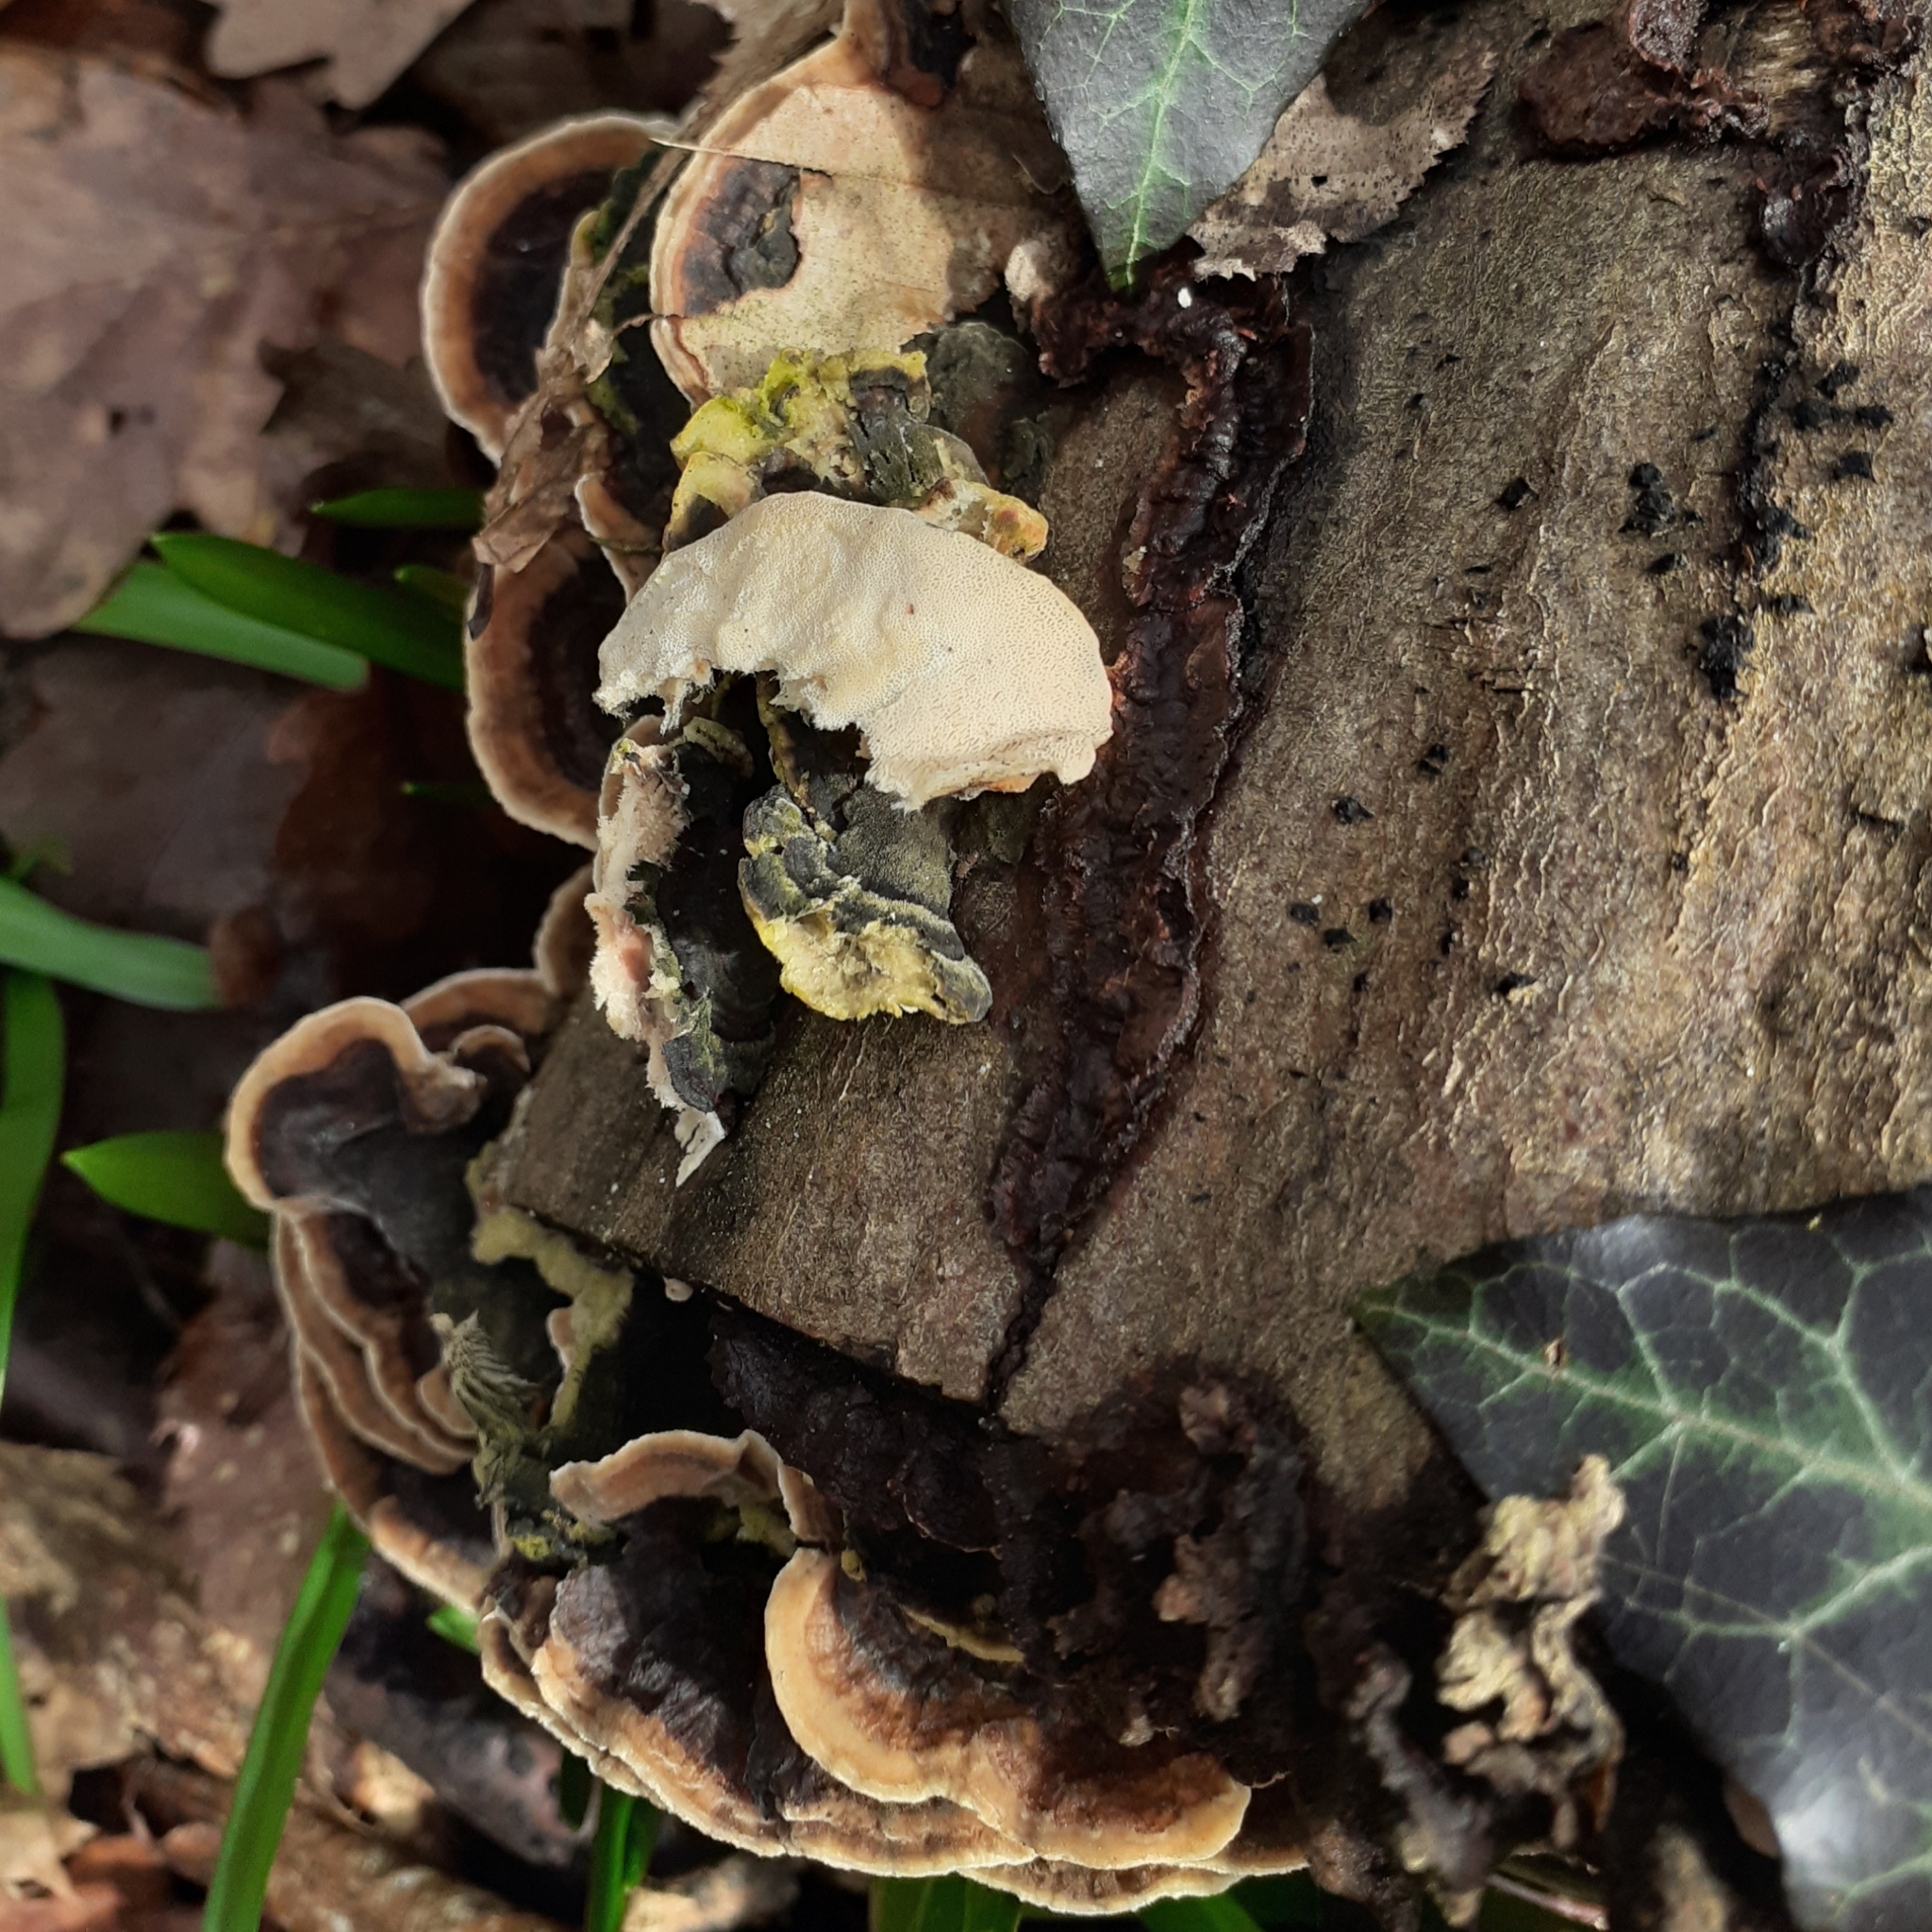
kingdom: Fungi
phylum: Basidiomycota
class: Agaricomycetes
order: Polyporales
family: Polyporaceae
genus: Trametes
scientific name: Trametes versicolor
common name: Turkeytail
